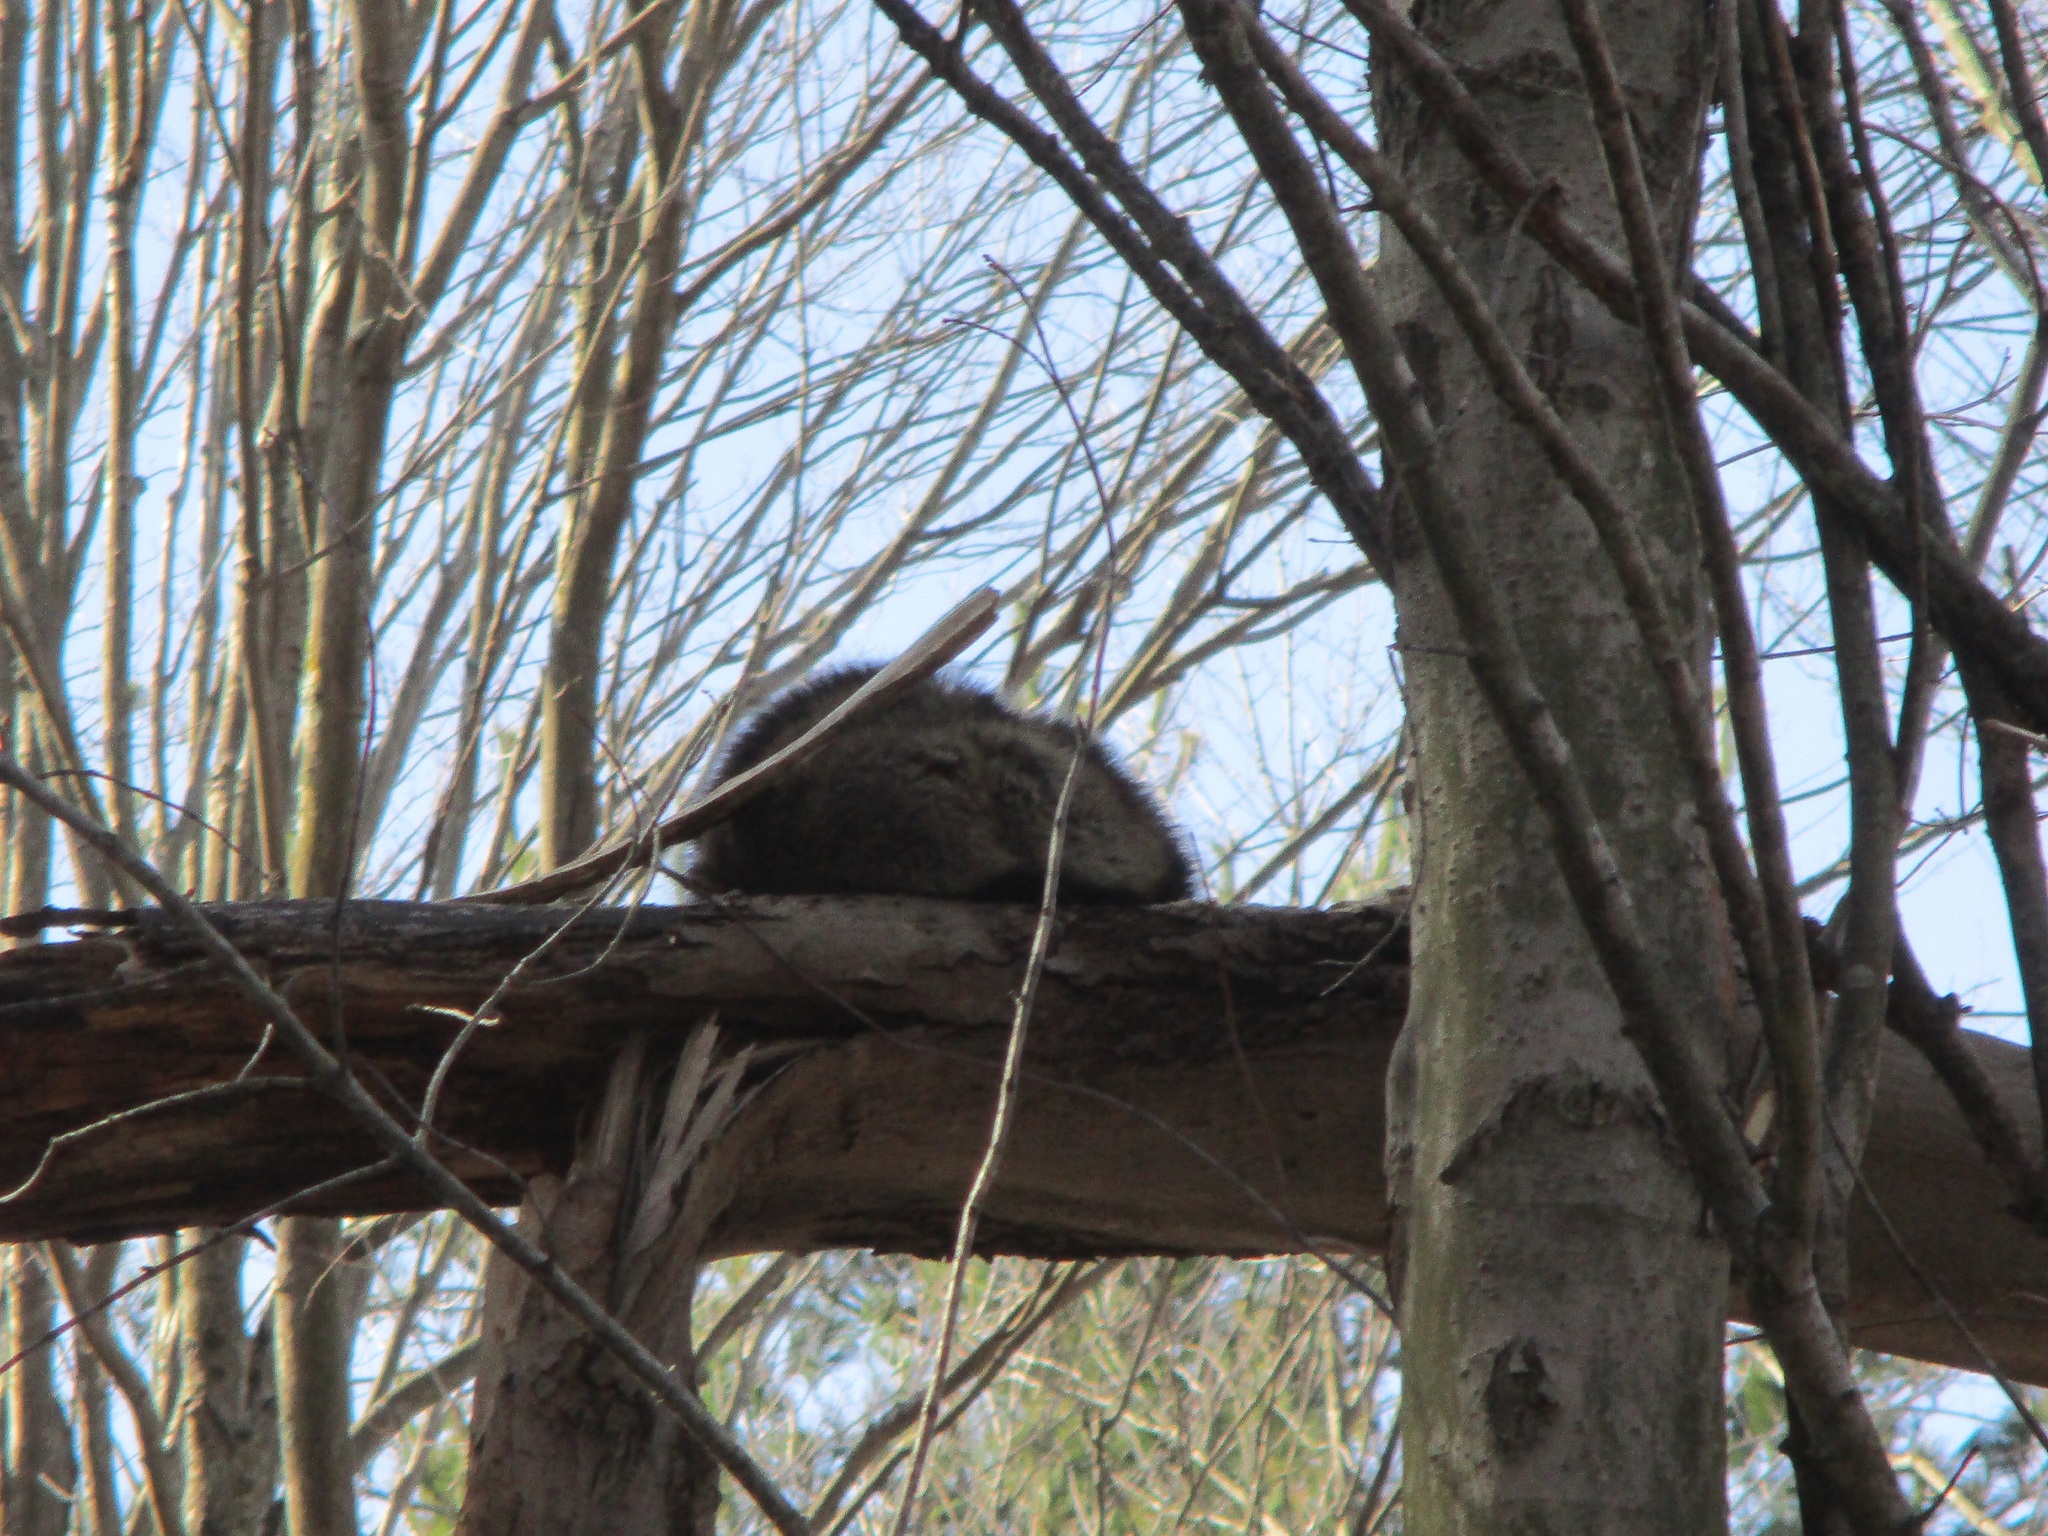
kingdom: Animalia
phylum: Chordata
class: Mammalia
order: Carnivora
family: Procyonidae
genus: Procyon
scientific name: Procyon lotor
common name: Raccoon
